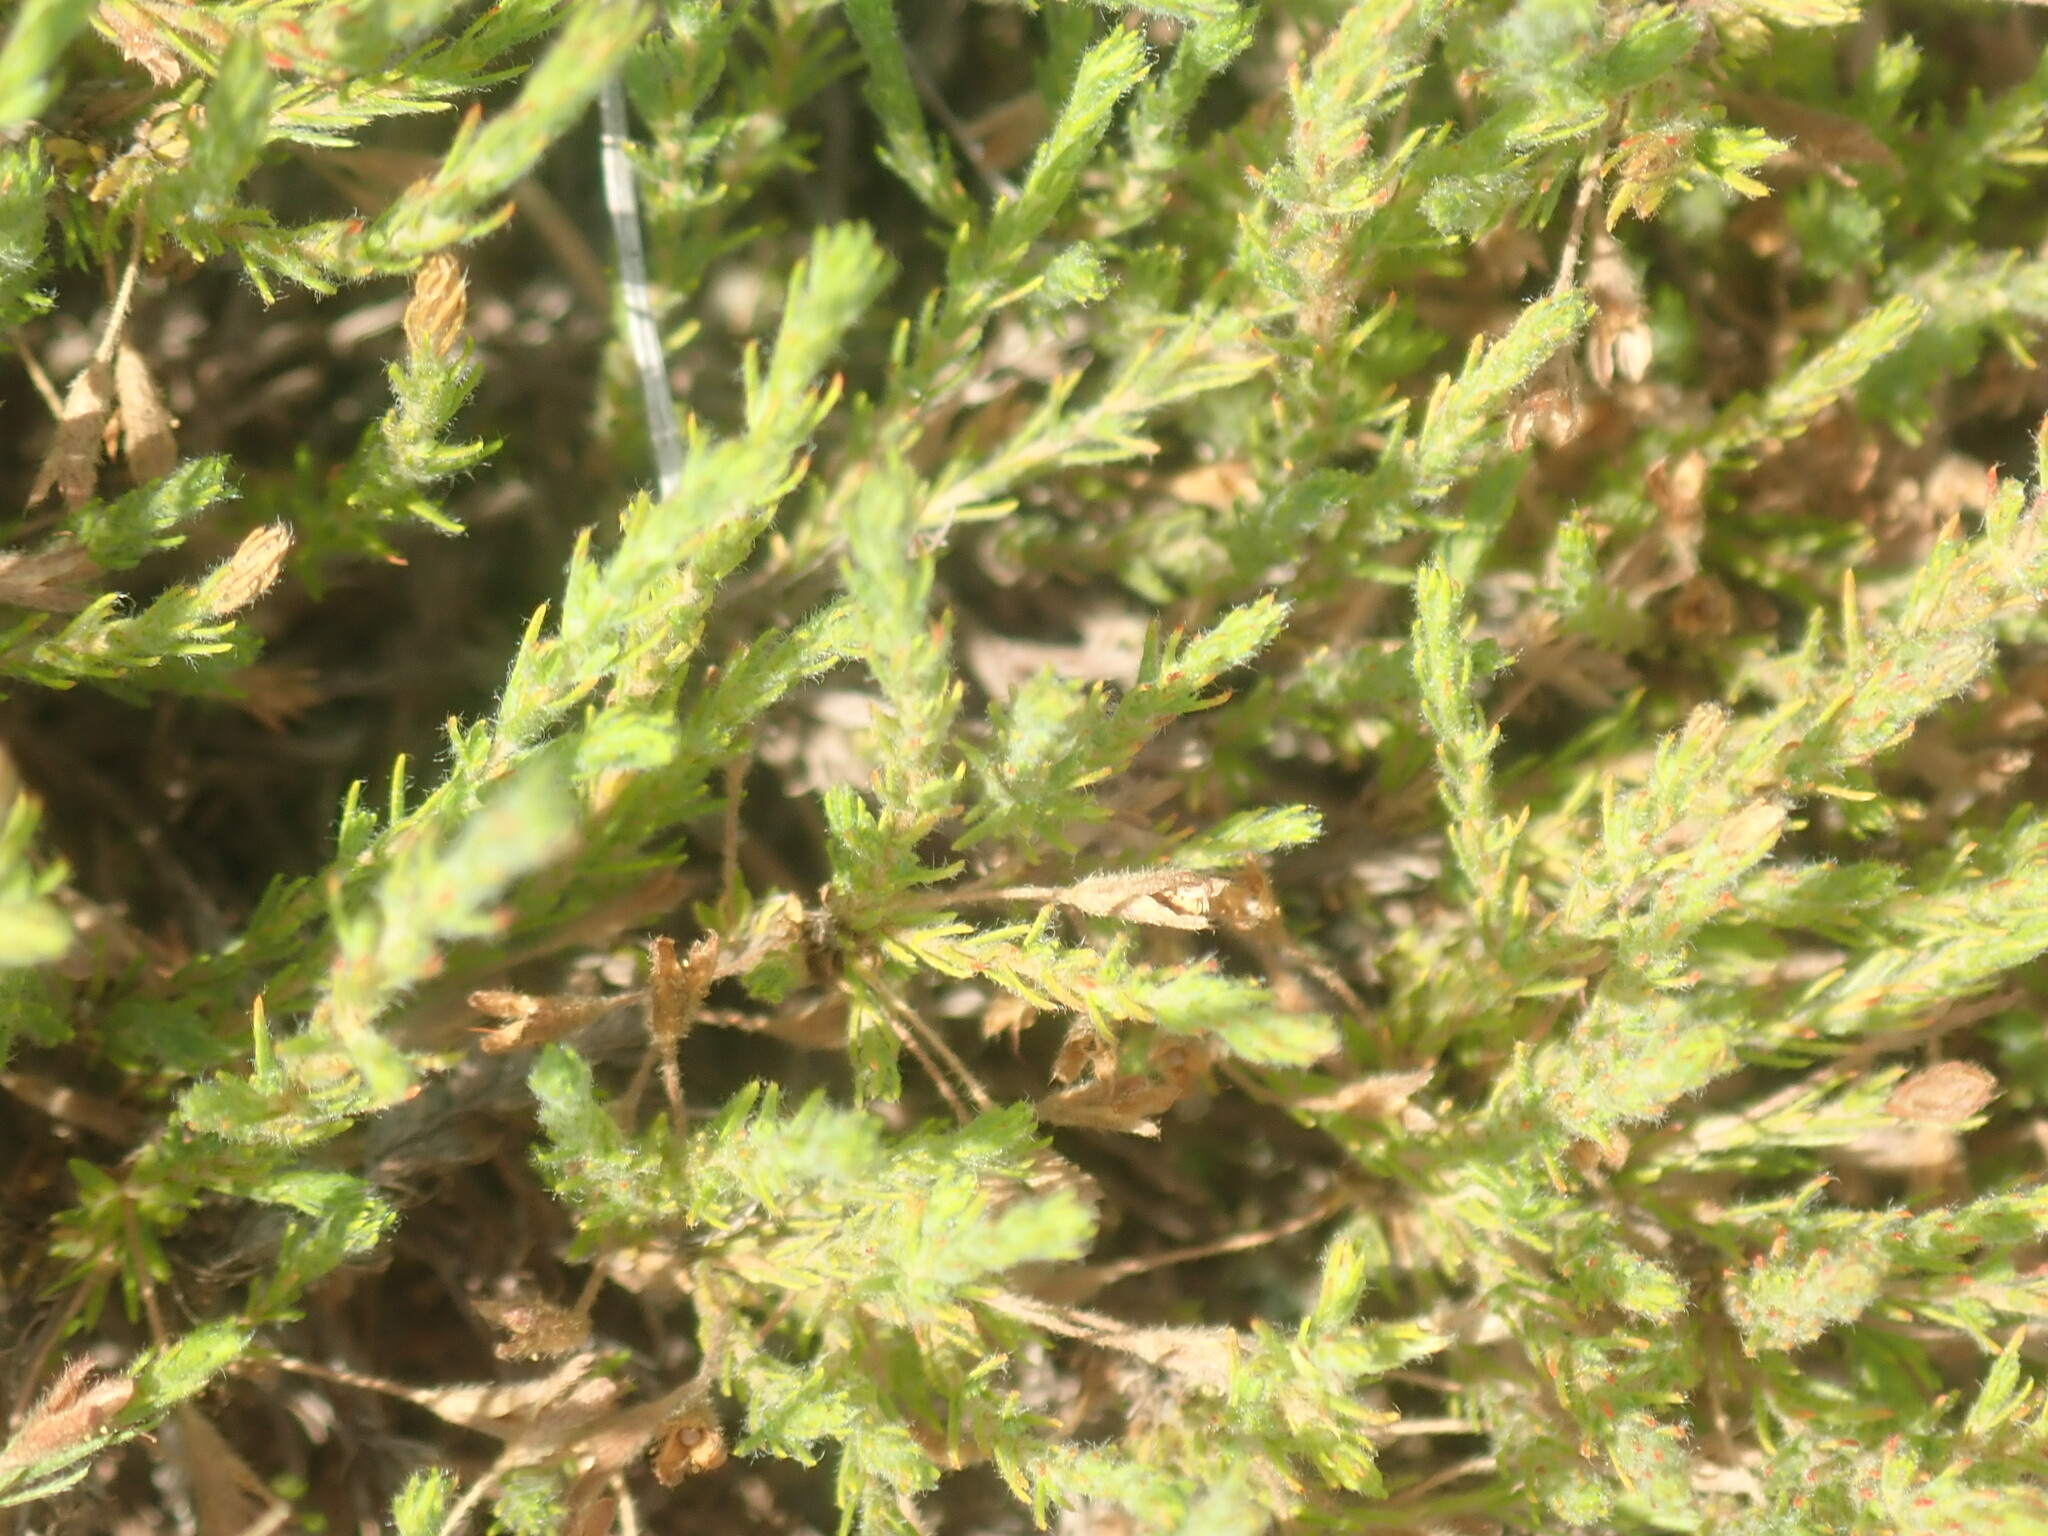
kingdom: Plantae
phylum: Tracheophyta
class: Magnoliopsida
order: Malvales
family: Cistaceae
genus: Hudsonia
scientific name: Hudsonia ericoides
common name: Golden-heather
